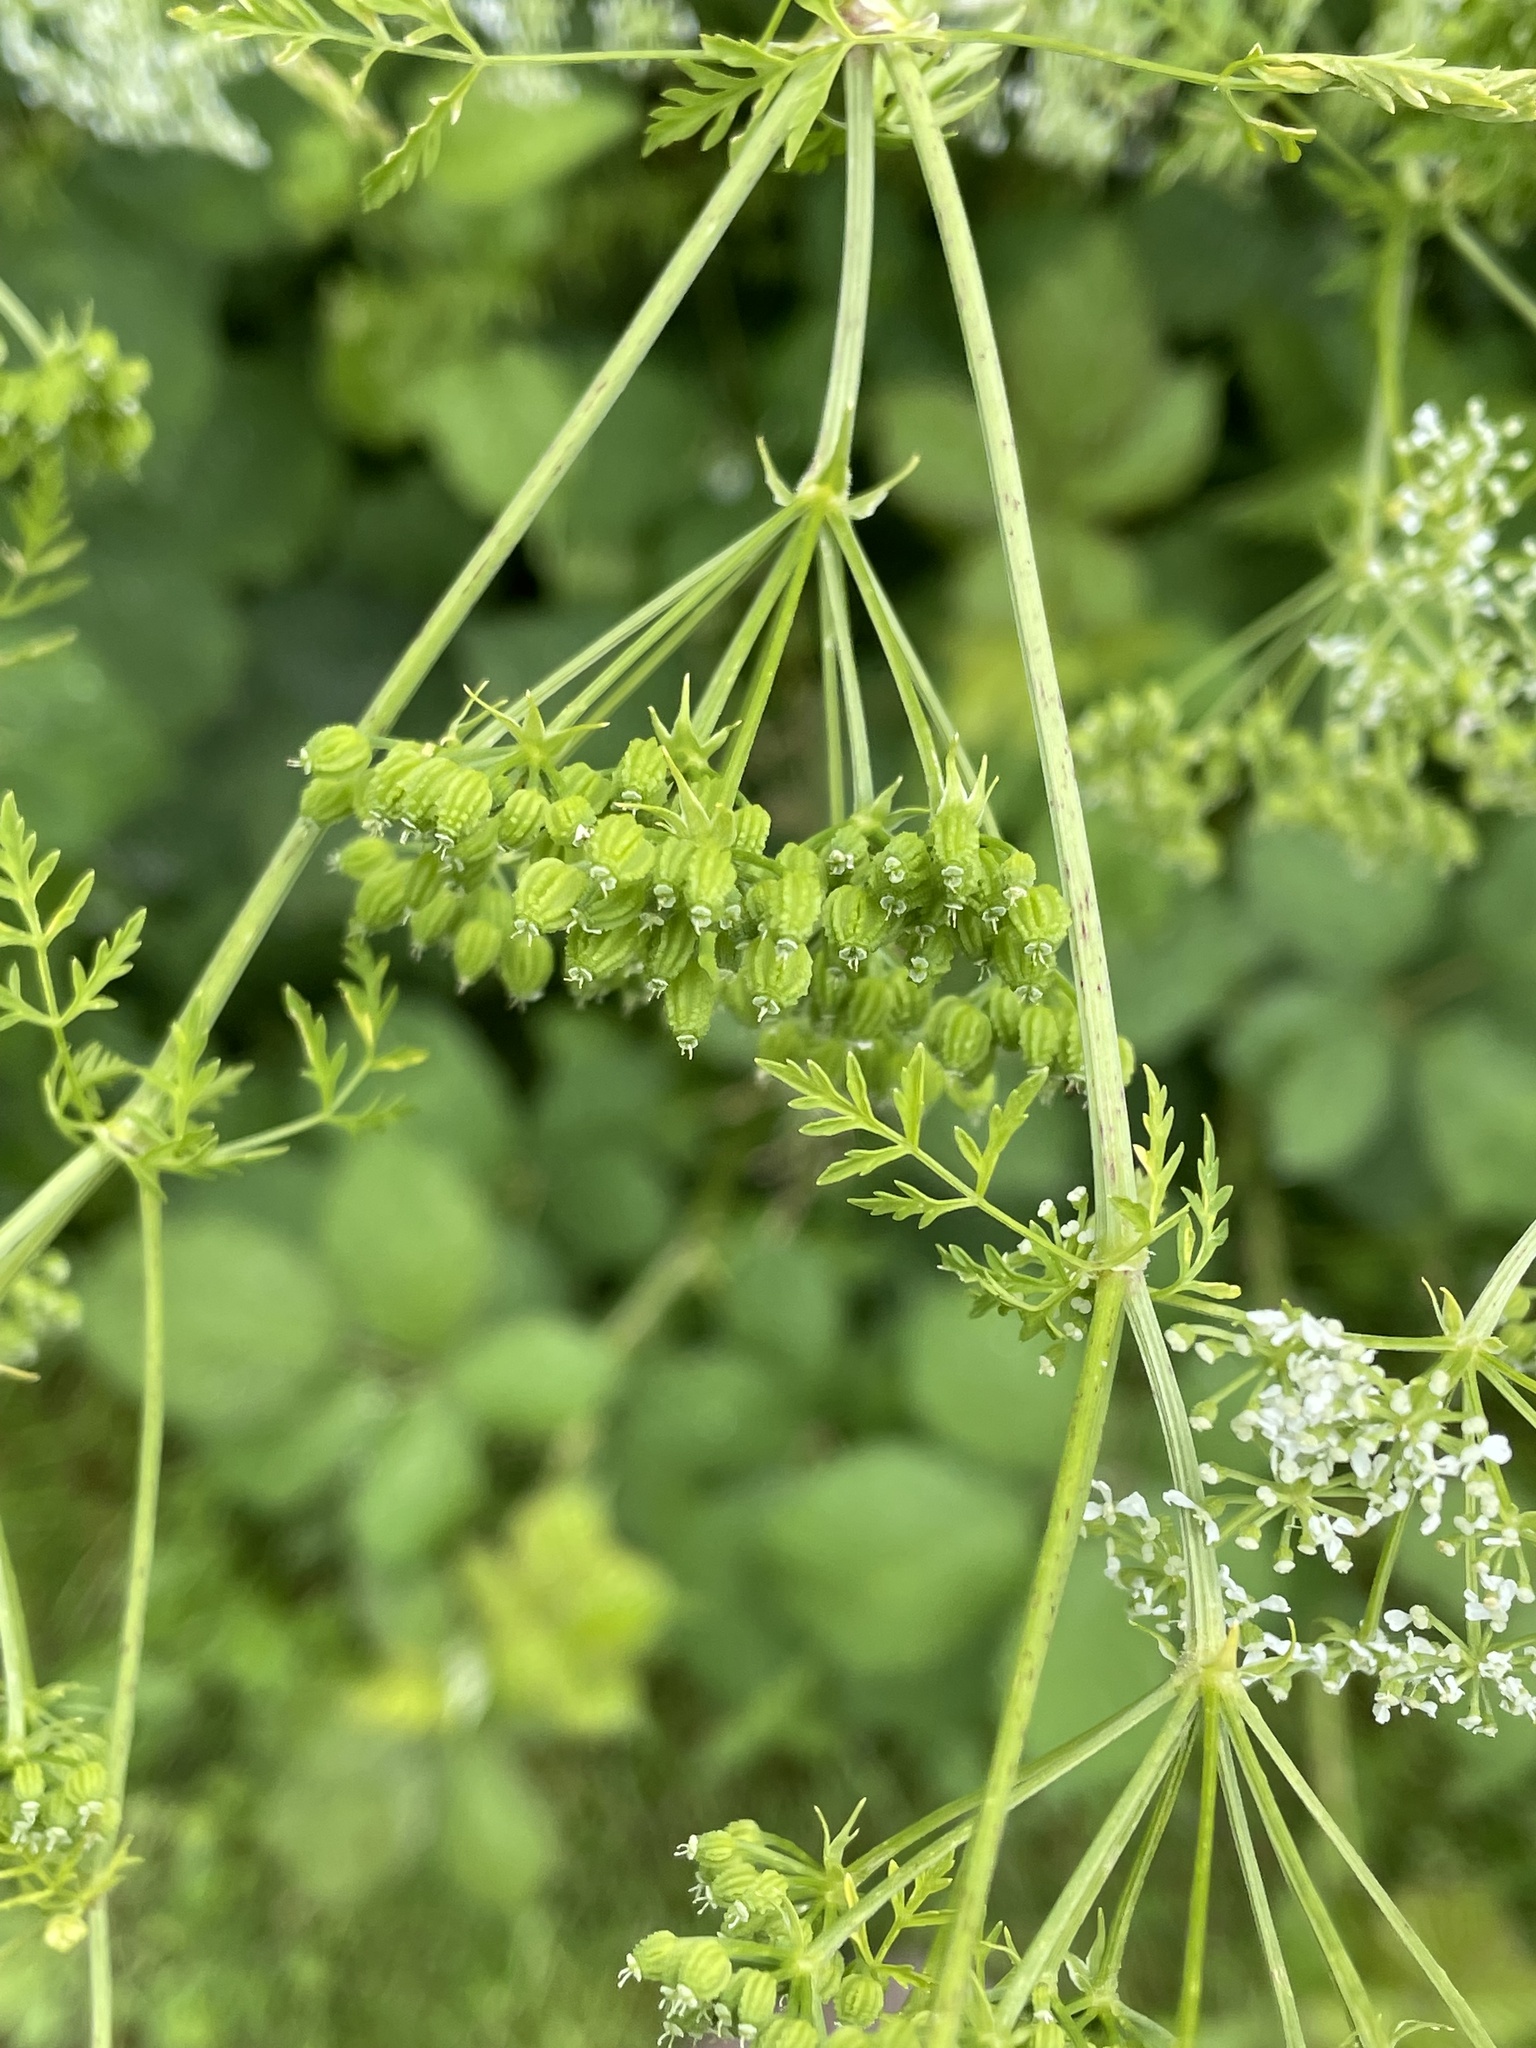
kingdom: Plantae
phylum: Tracheophyta
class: Magnoliopsida
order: Apiales
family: Apiaceae
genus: Conium
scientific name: Conium maculatum
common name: Hemlock
